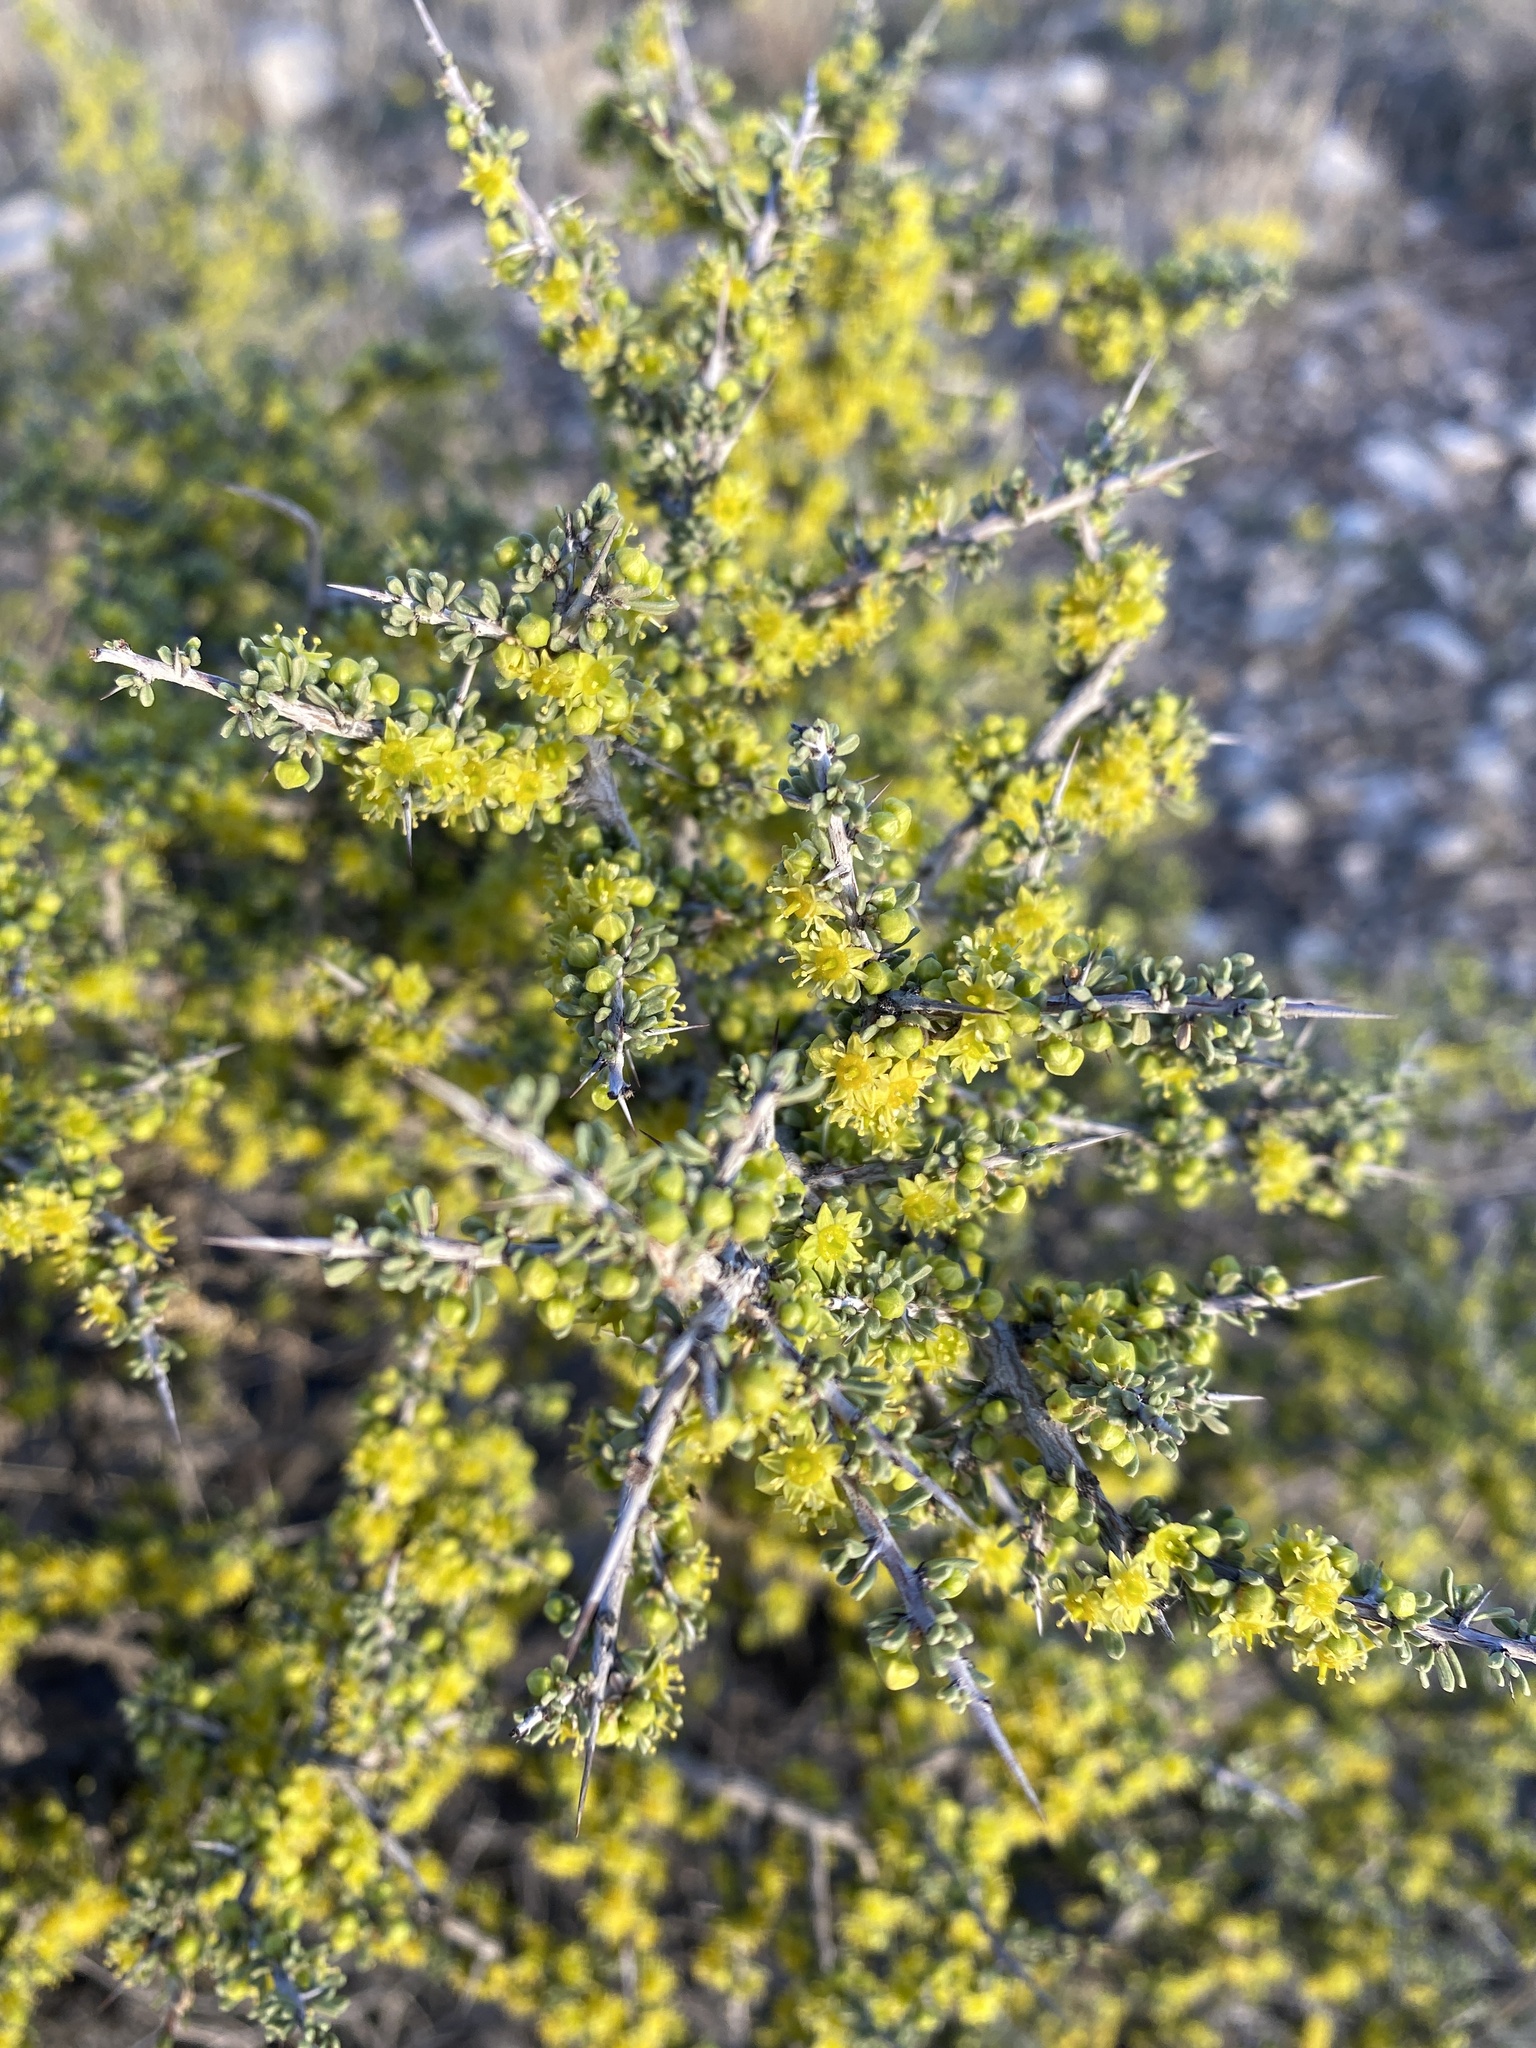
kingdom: Plantae
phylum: Tracheophyta
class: Magnoliopsida
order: Rosales
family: Rhamnaceae
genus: Condalia
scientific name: Condalia ericoides
